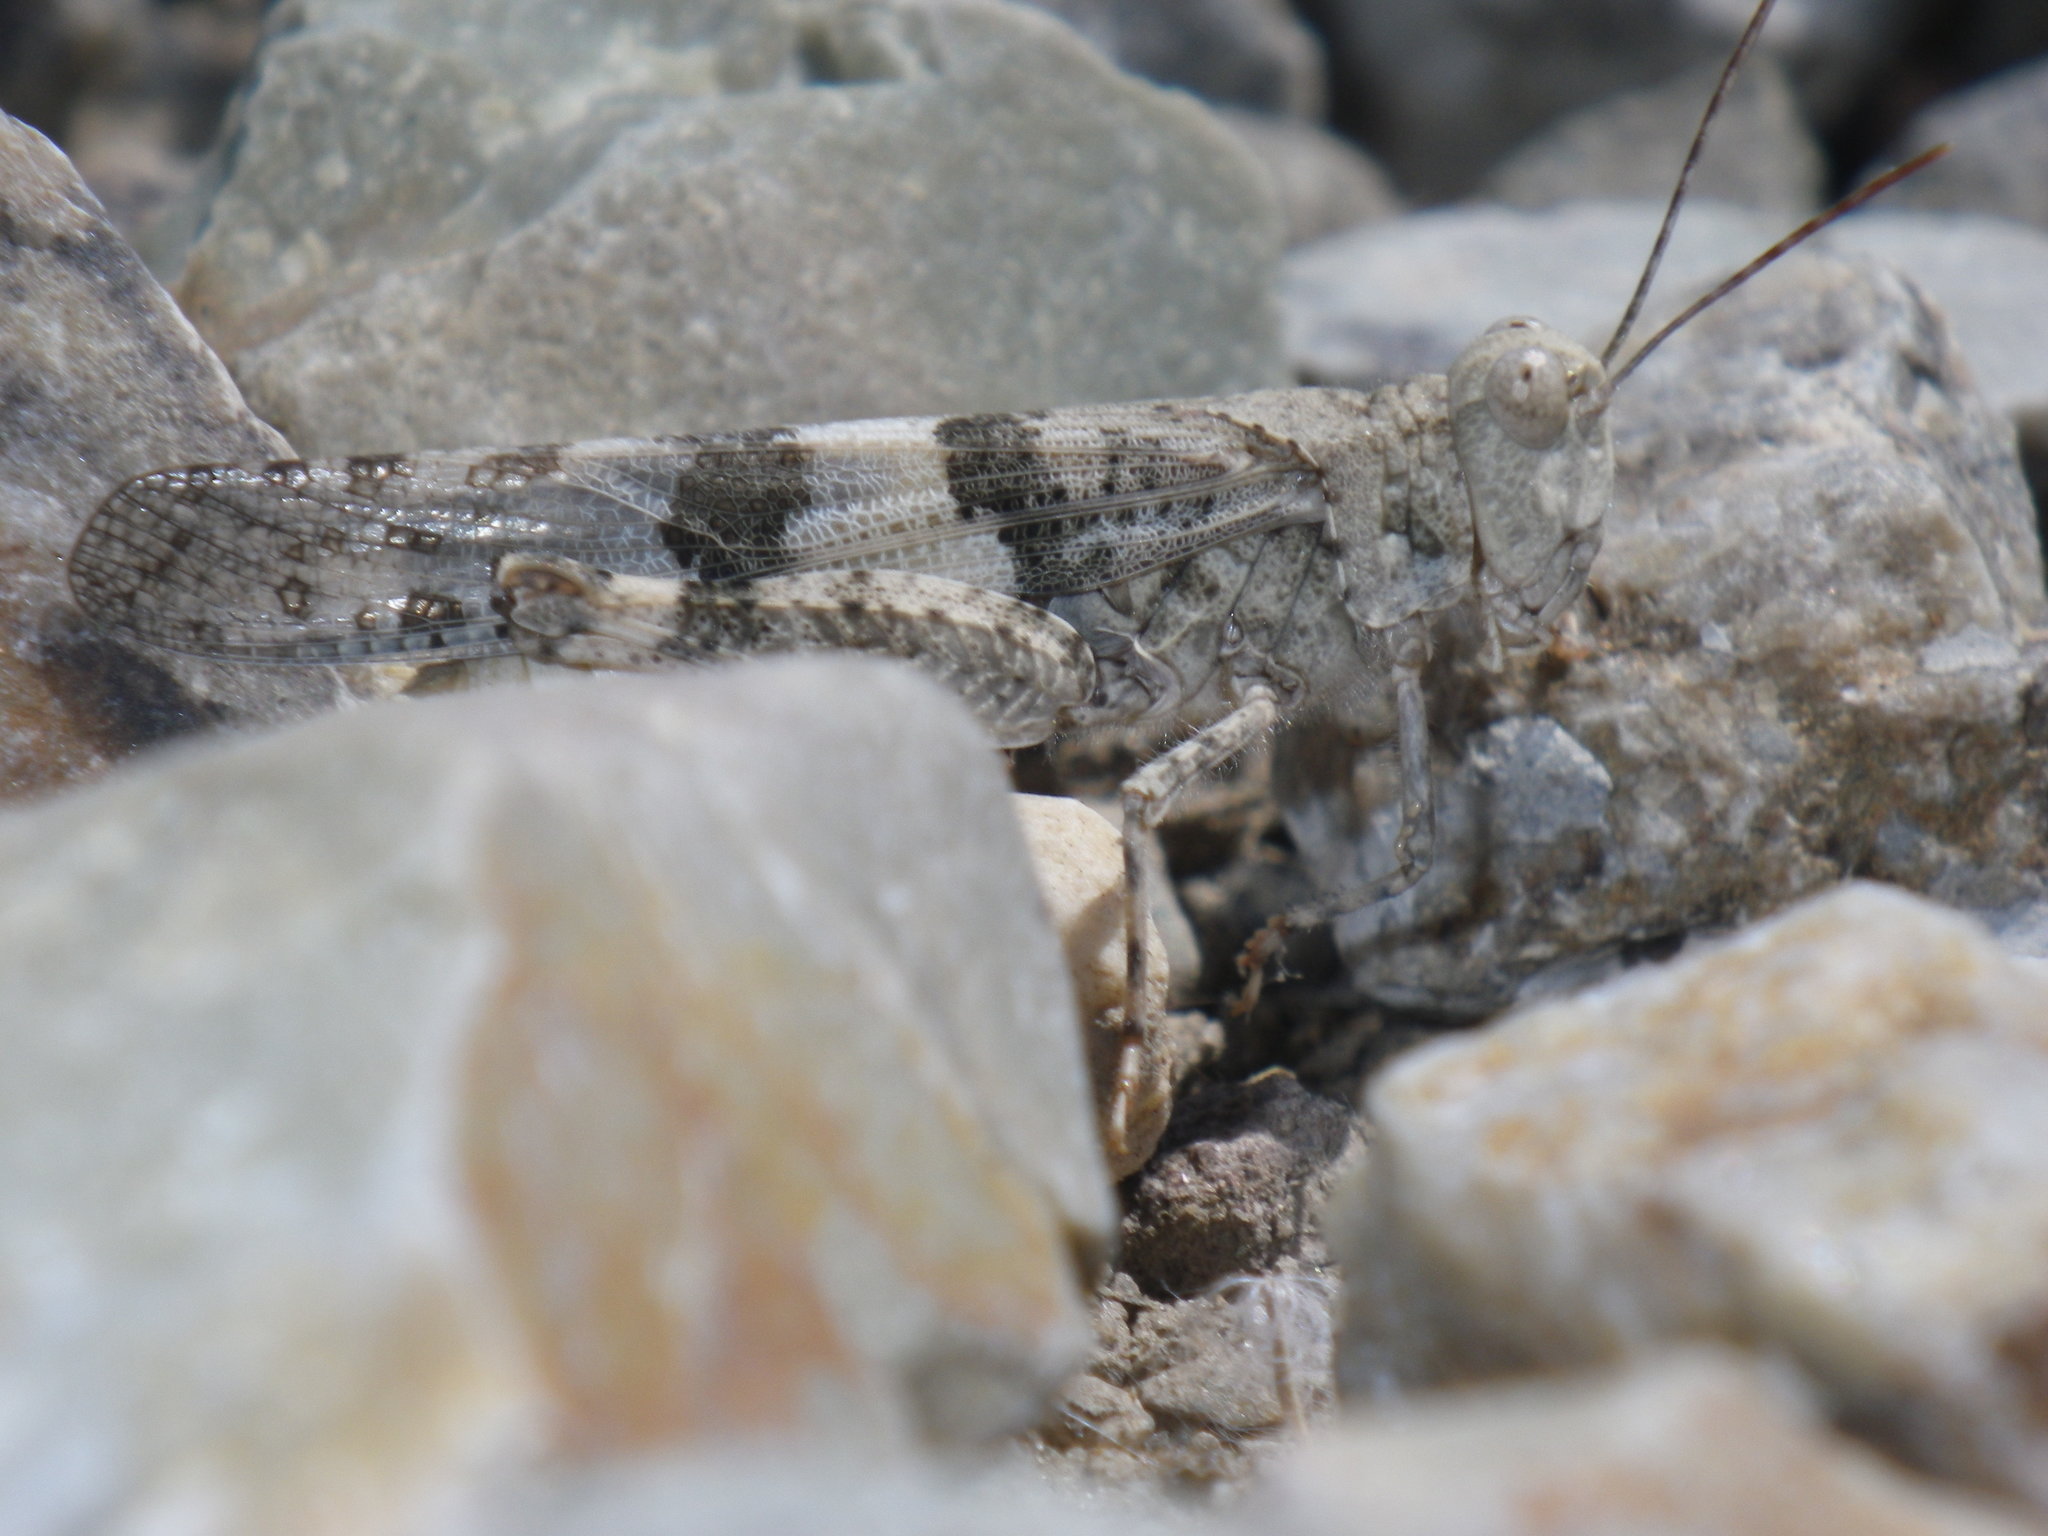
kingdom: Animalia
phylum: Arthropoda
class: Insecta
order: Orthoptera
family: Acrididae
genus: Trimerotropis
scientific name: Trimerotropis pallidipennis
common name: Pallid-winged grasshopper
